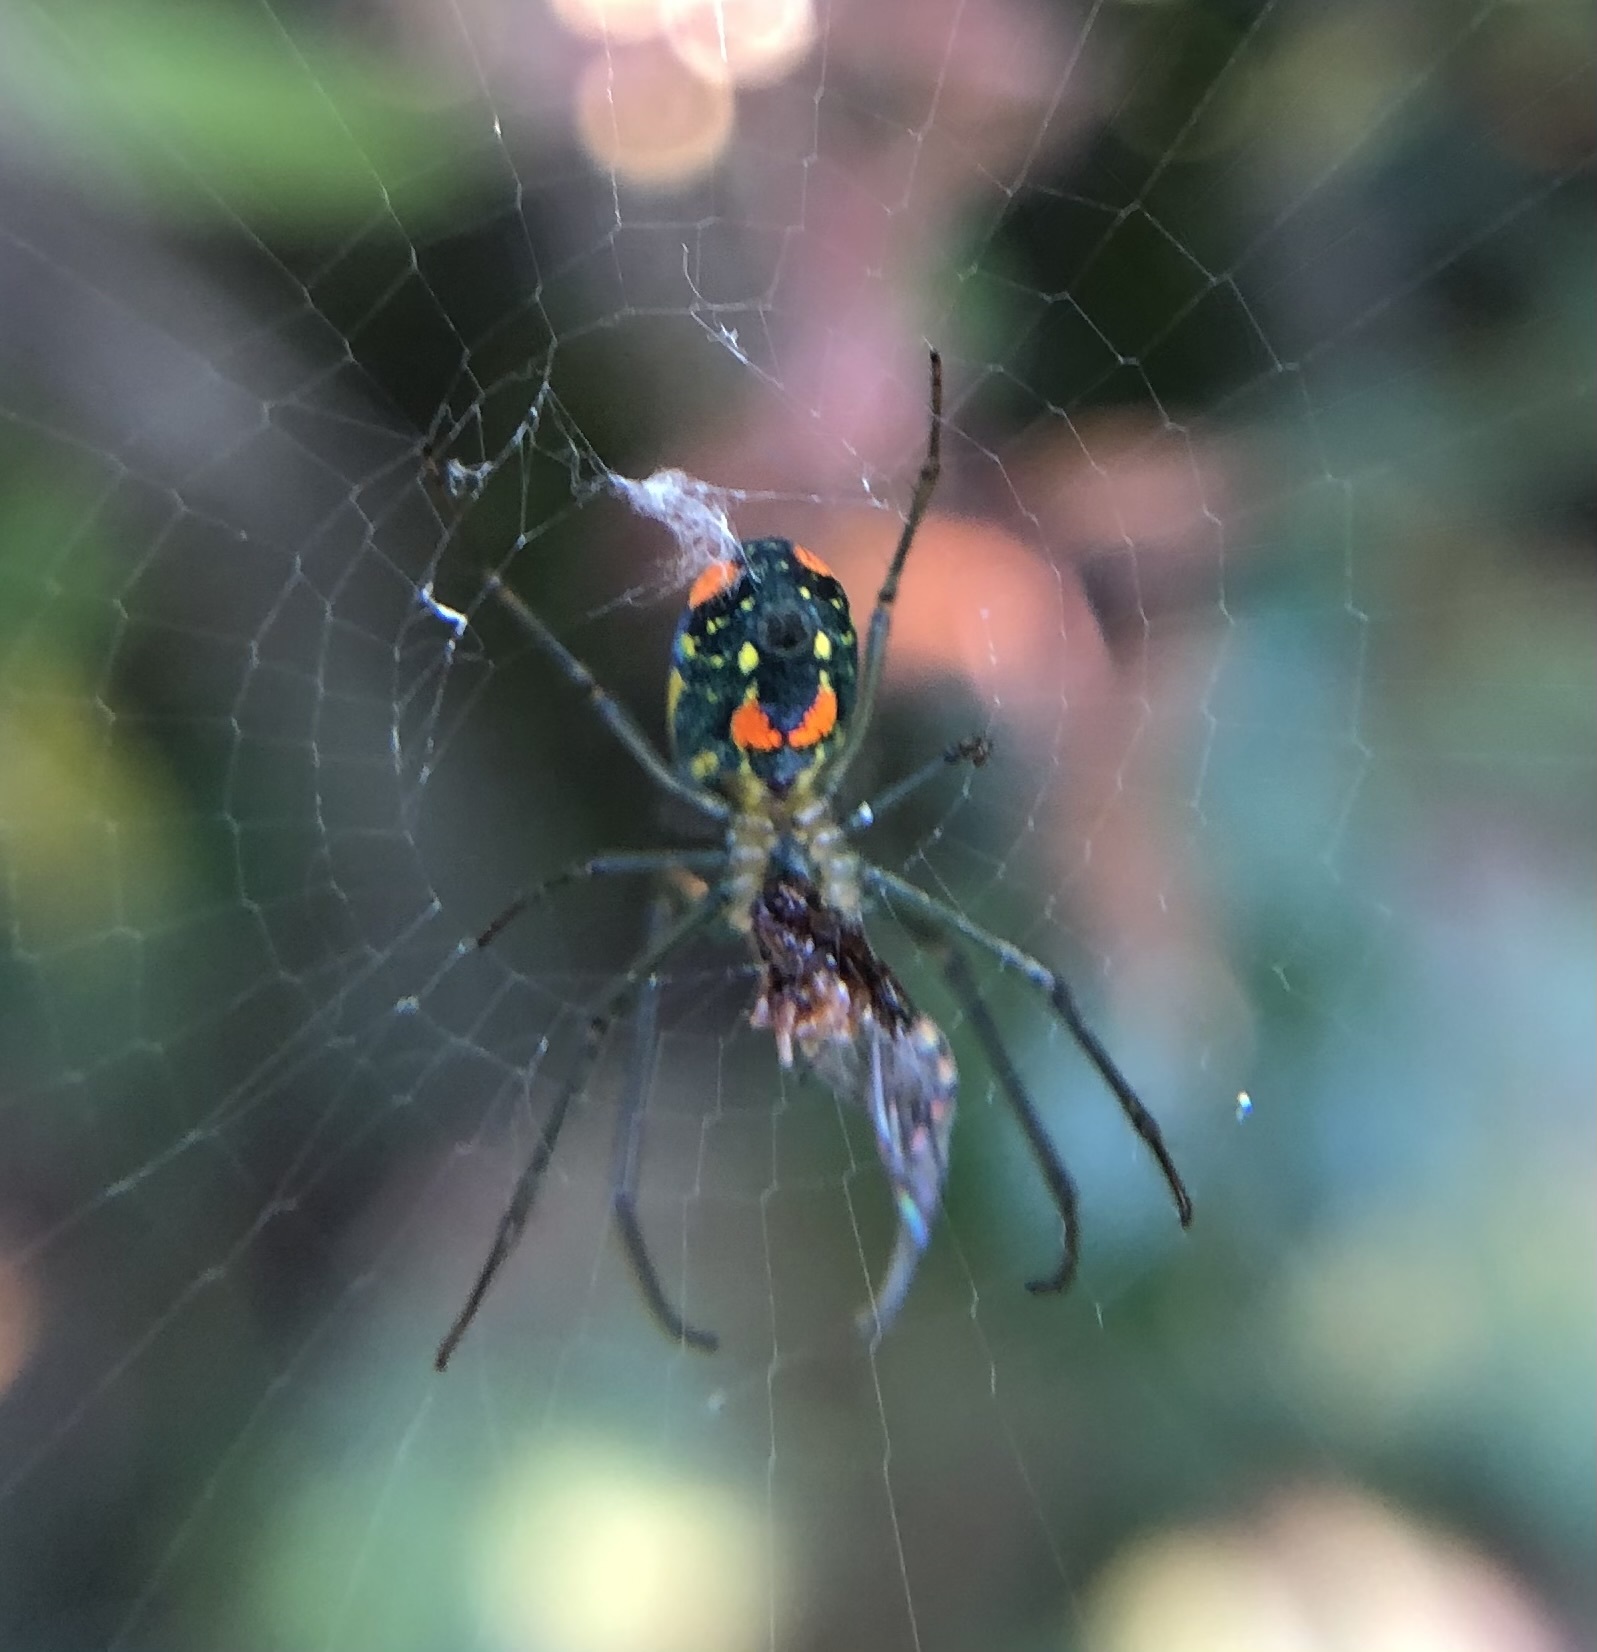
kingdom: Animalia
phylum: Arthropoda
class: Arachnida
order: Araneae
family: Tetragnathidae
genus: Leucauge
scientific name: Leucauge argyrobapta
